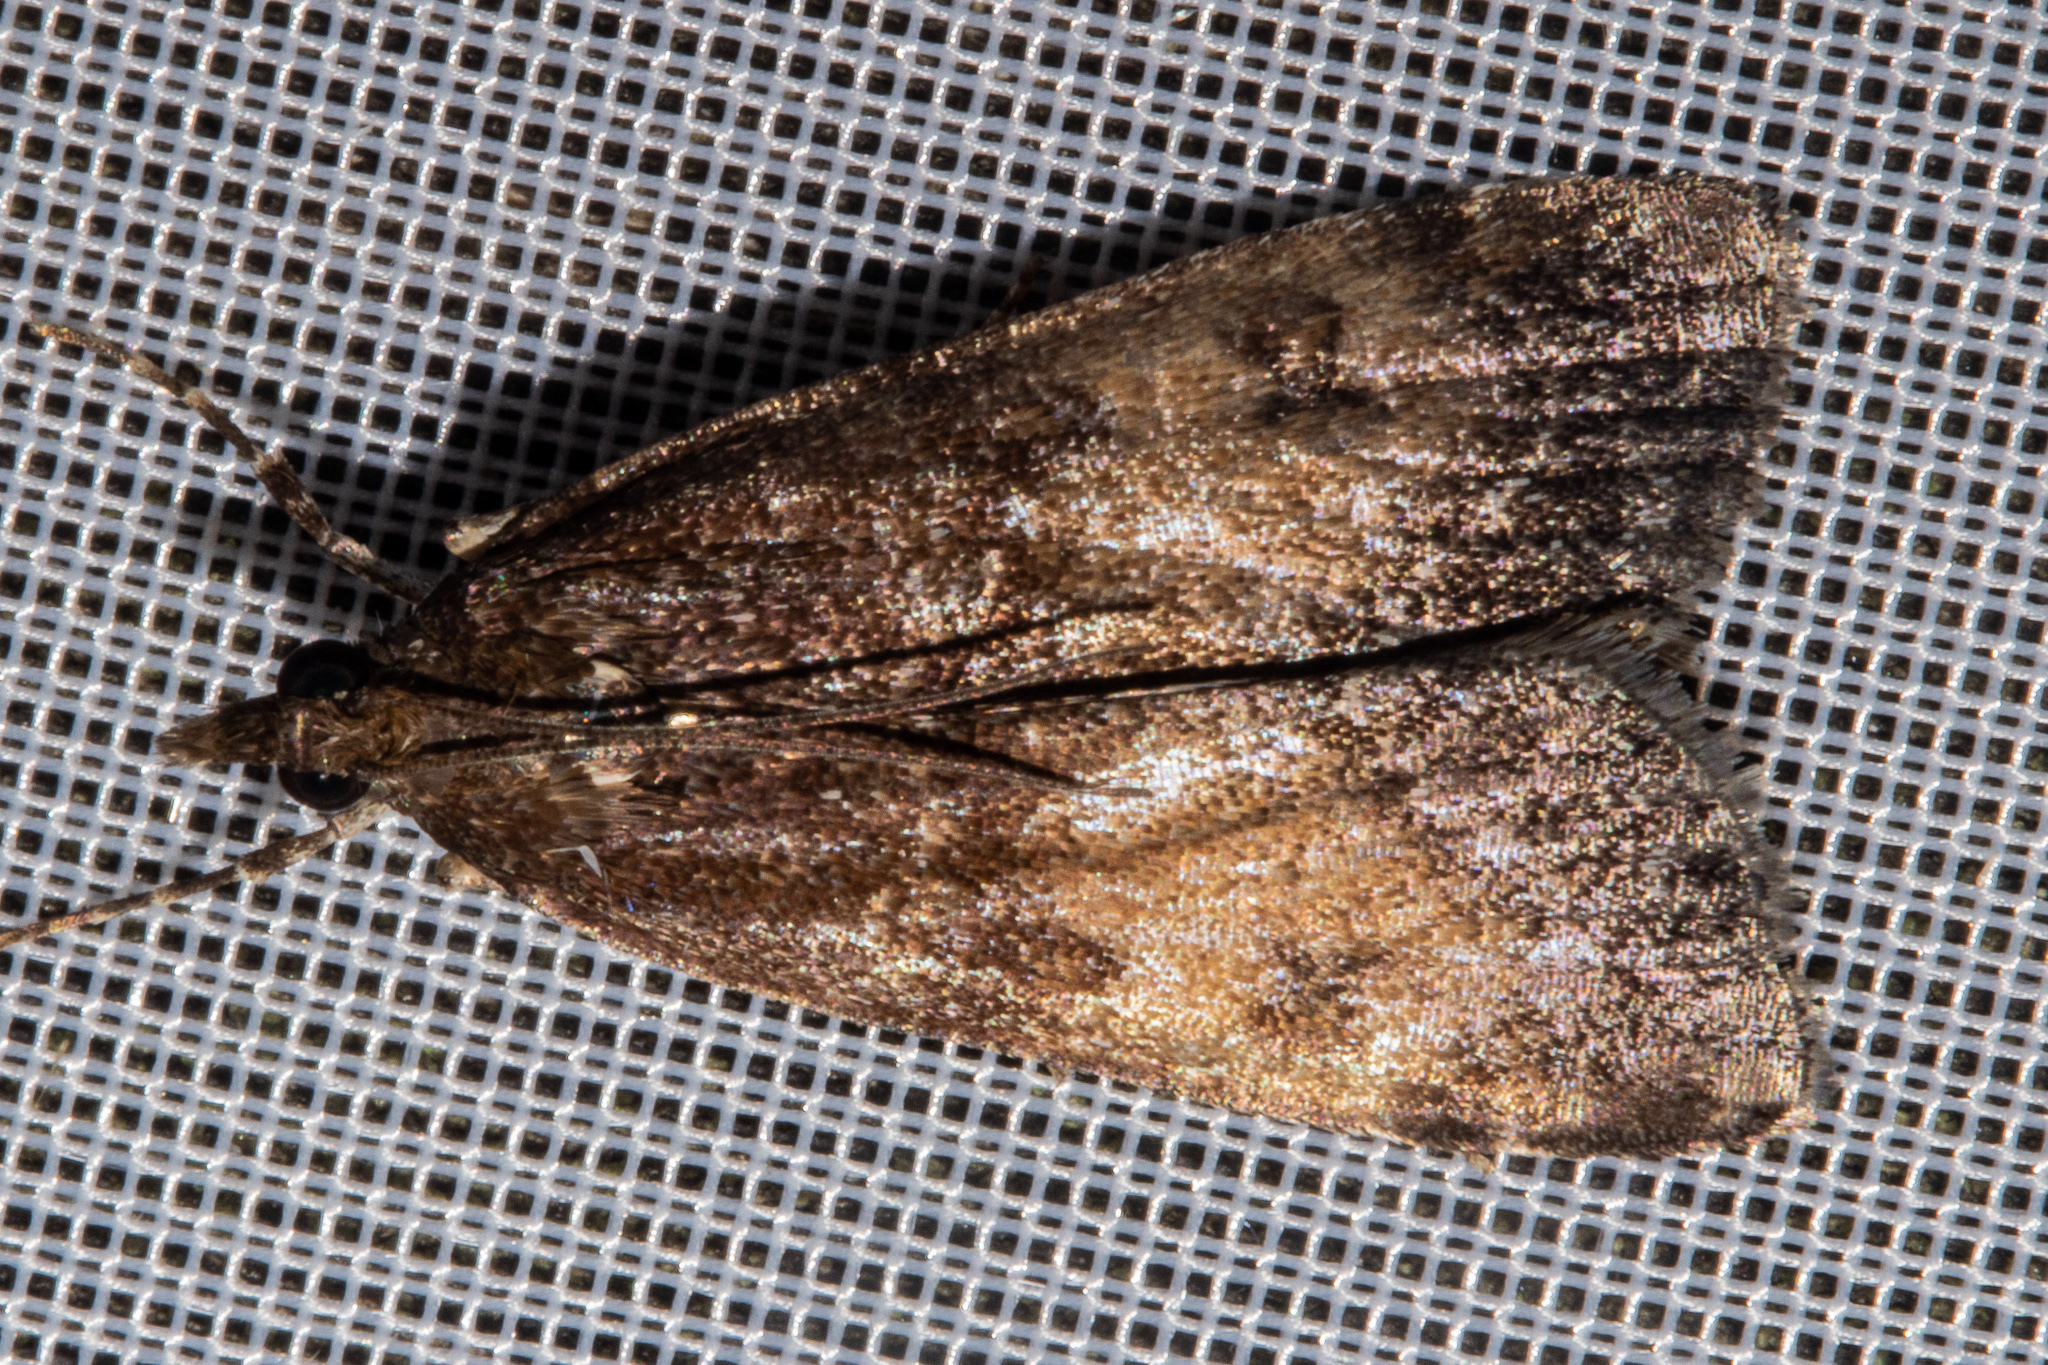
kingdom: Animalia
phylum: Arthropoda
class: Insecta
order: Lepidoptera
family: Crambidae
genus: Eudonia
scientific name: Eudonia asterisca
